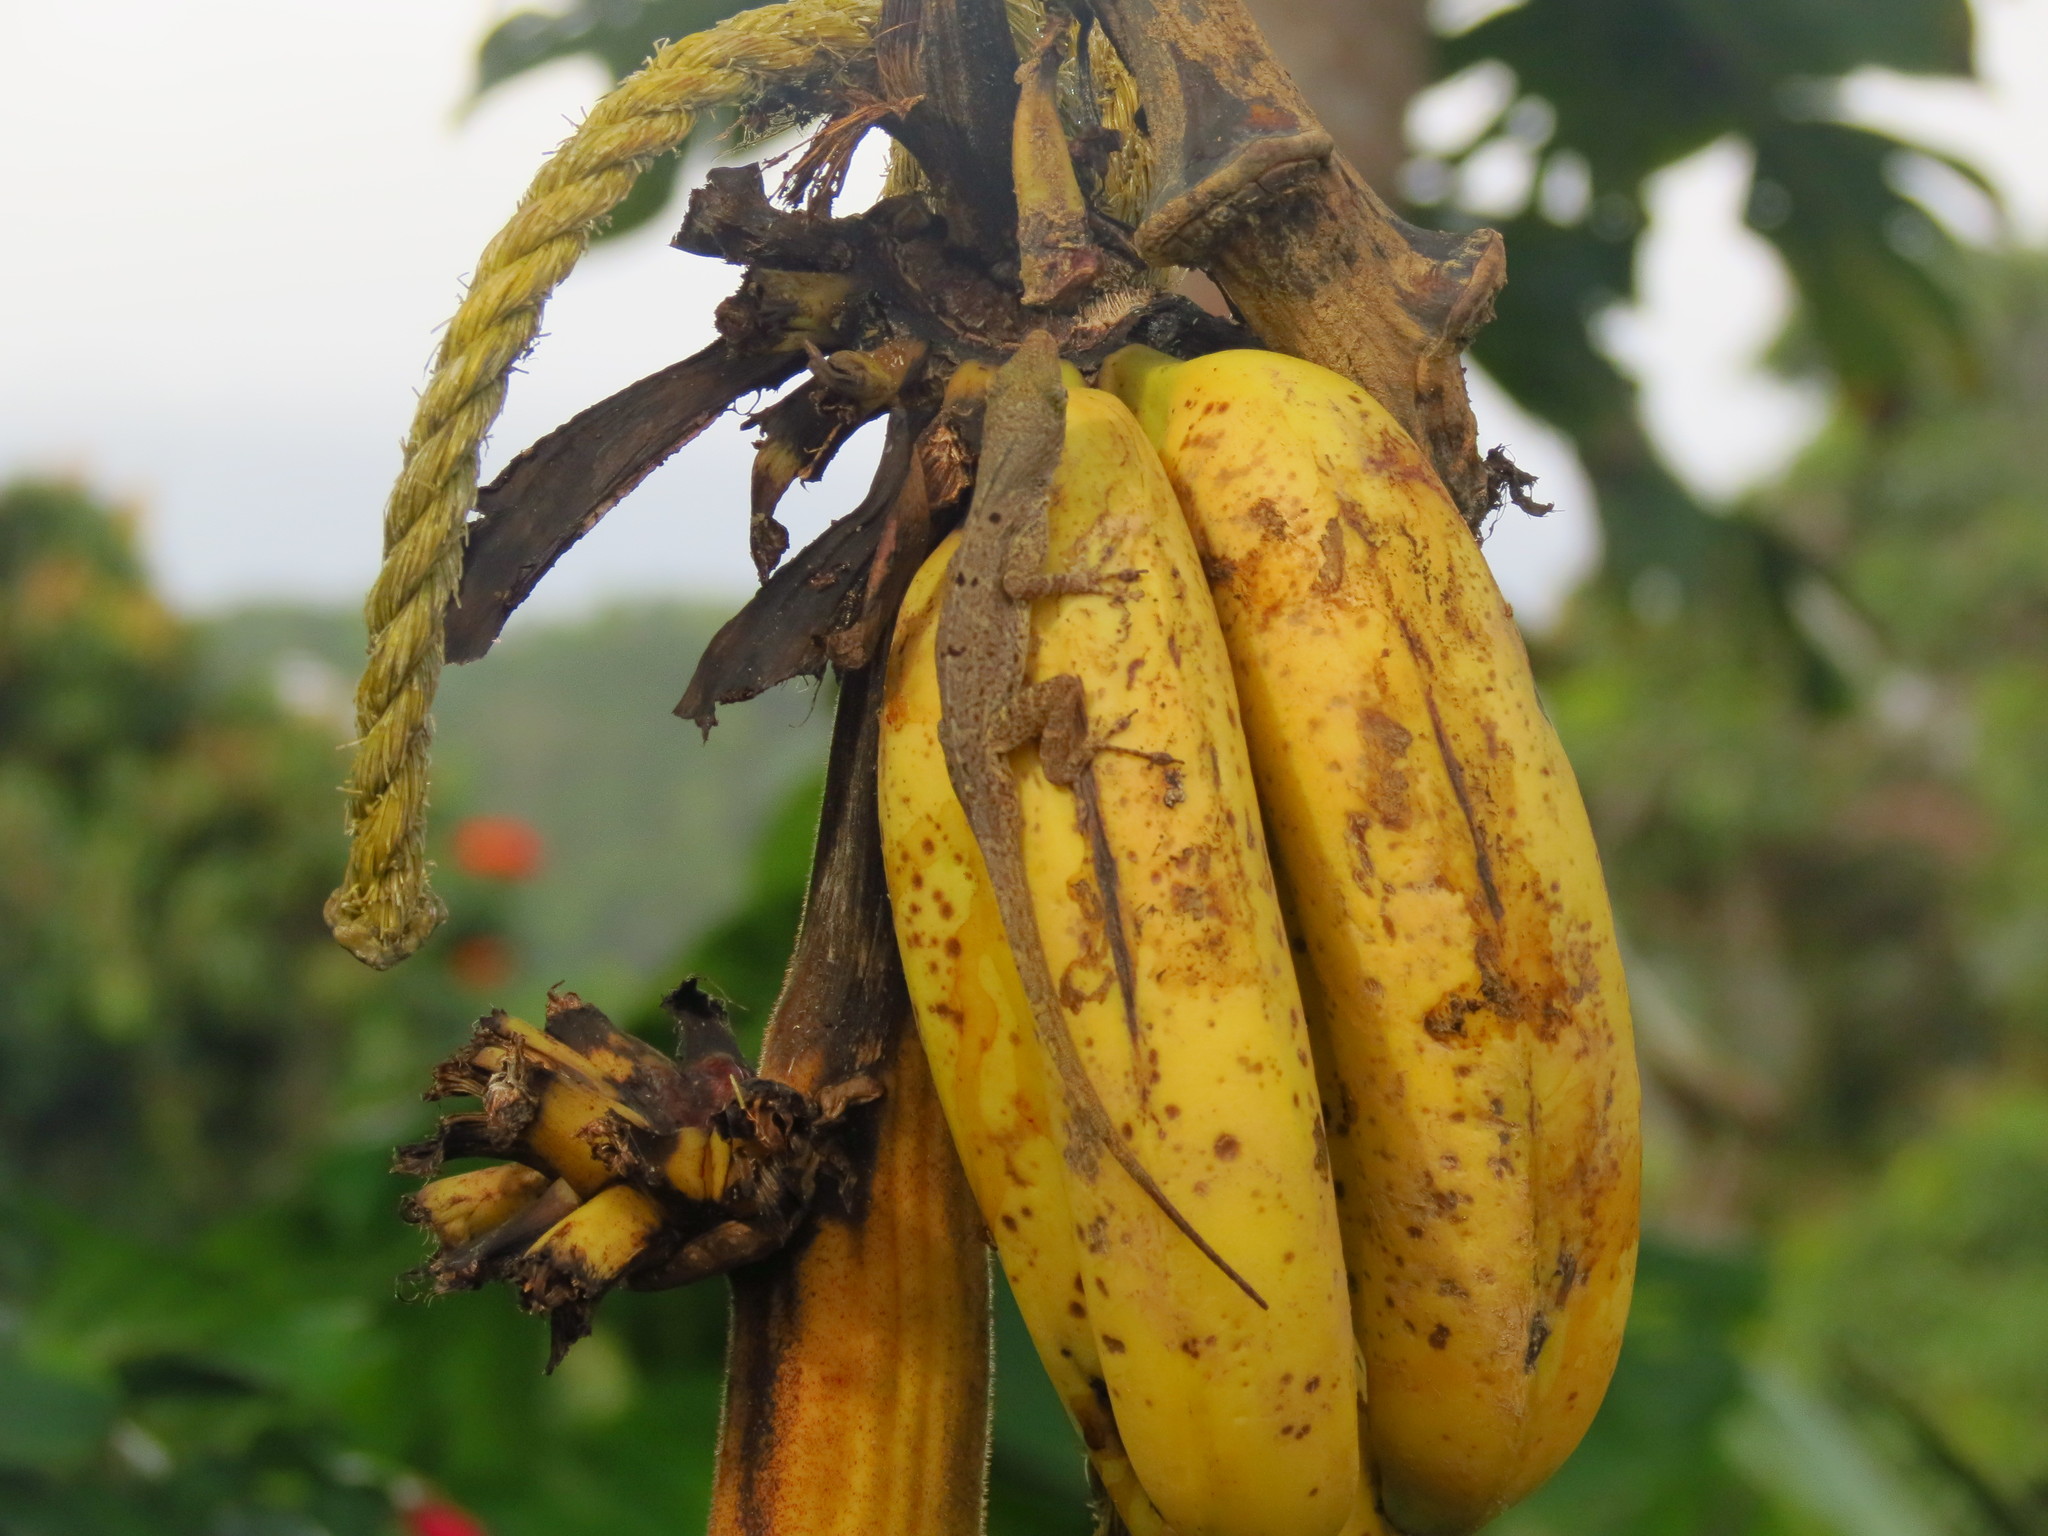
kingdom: Animalia
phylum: Chordata
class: Squamata
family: Dactyloidae
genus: Anolis
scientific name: Anolis stratulus
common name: Banded anole
